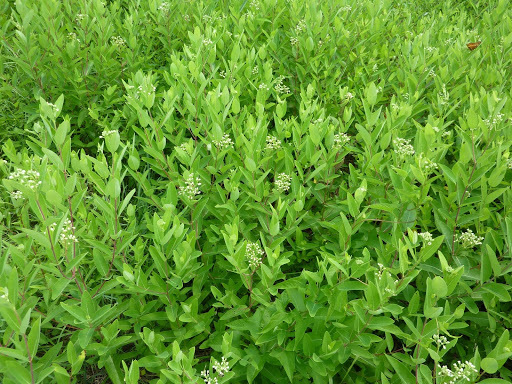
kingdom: Plantae
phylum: Tracheophyta
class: Magnoliopsida
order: Gentianales
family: Apocynaceae
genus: Apocynum
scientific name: Apocynum cannabinum
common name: Hemp dogbane
